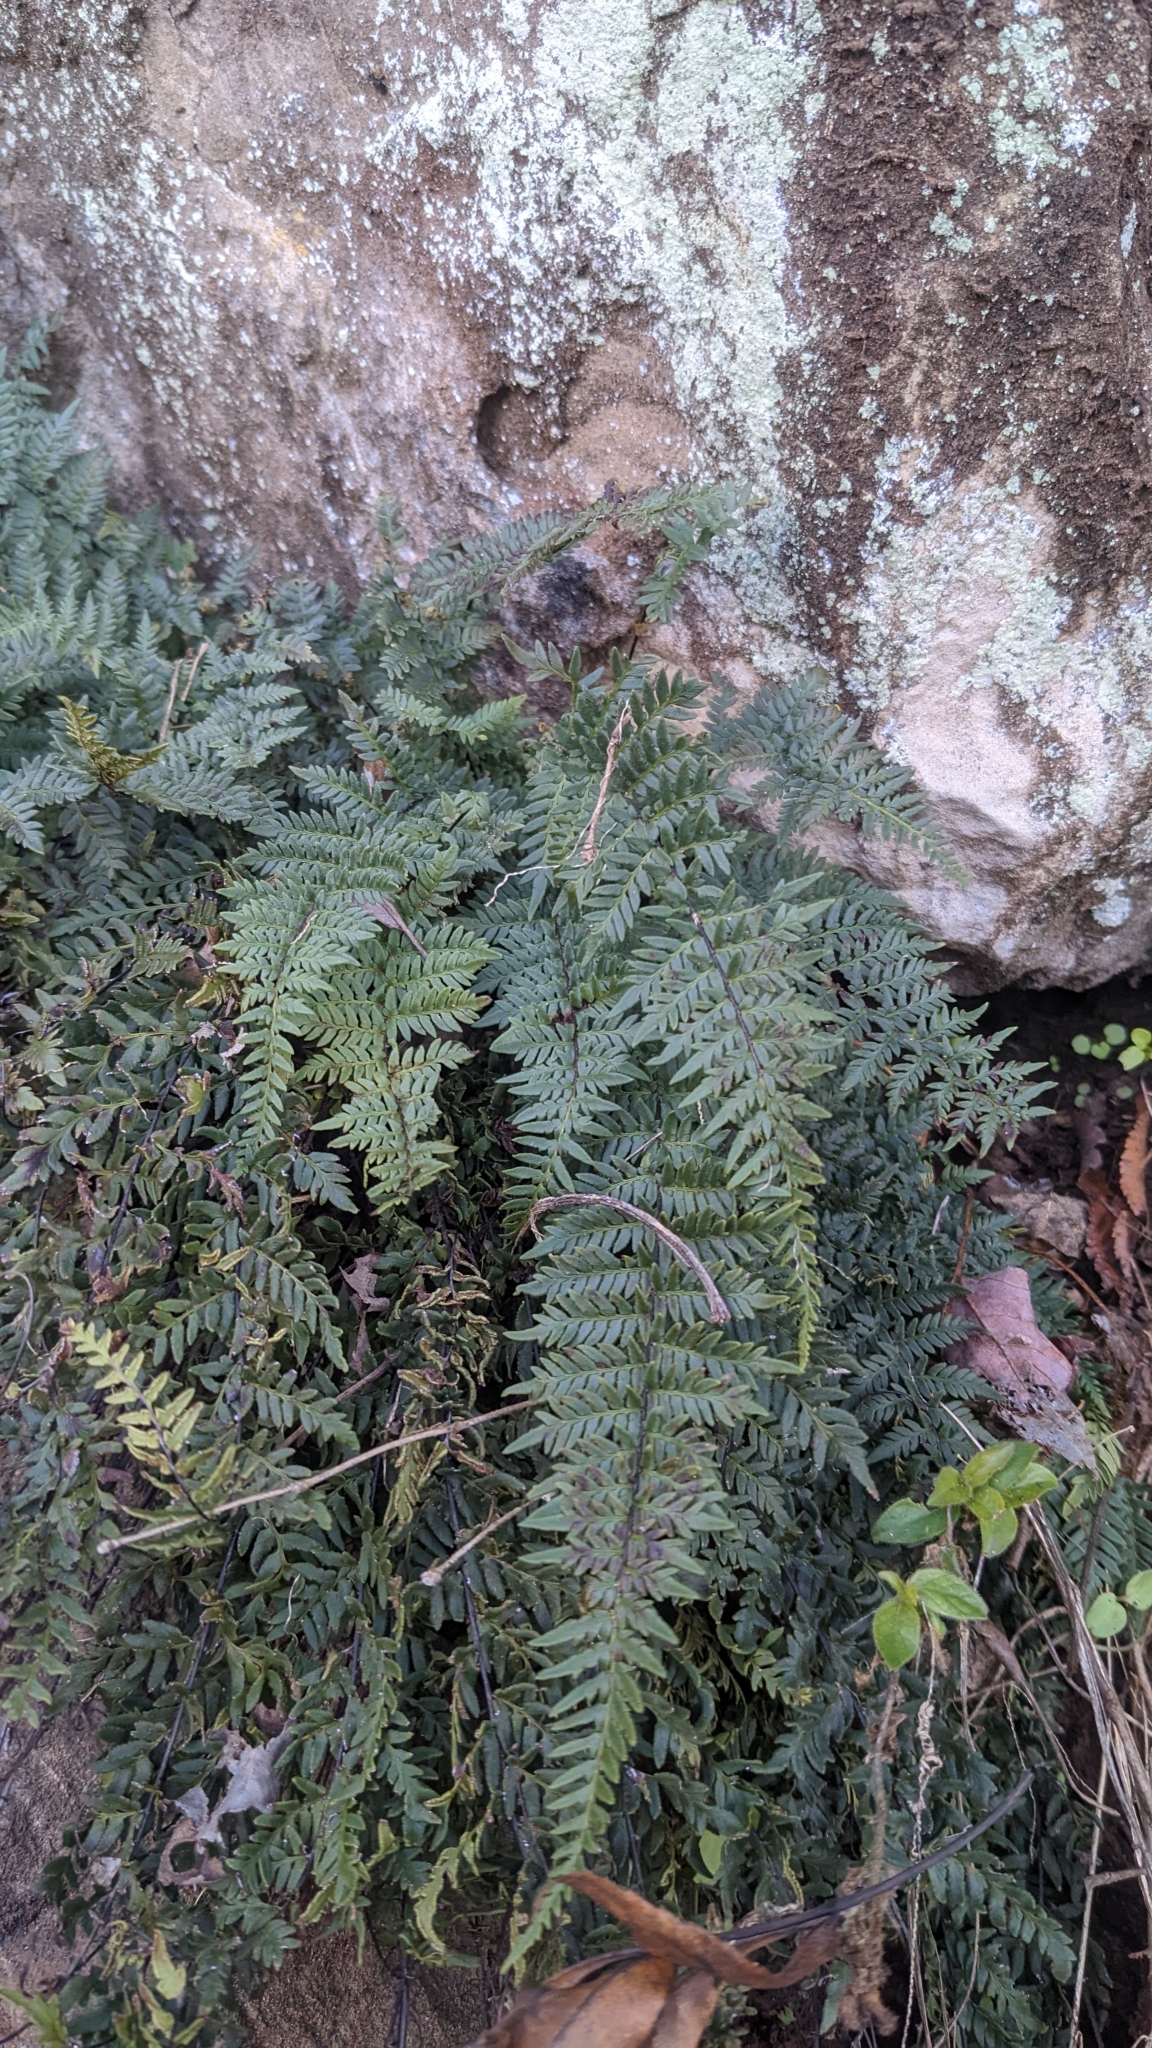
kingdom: Plantae
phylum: Tracheophyta
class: Polypodiopsida
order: Polypodiales
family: Pteridaceae
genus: Myriopteris
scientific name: Myriopteris alabamensis
